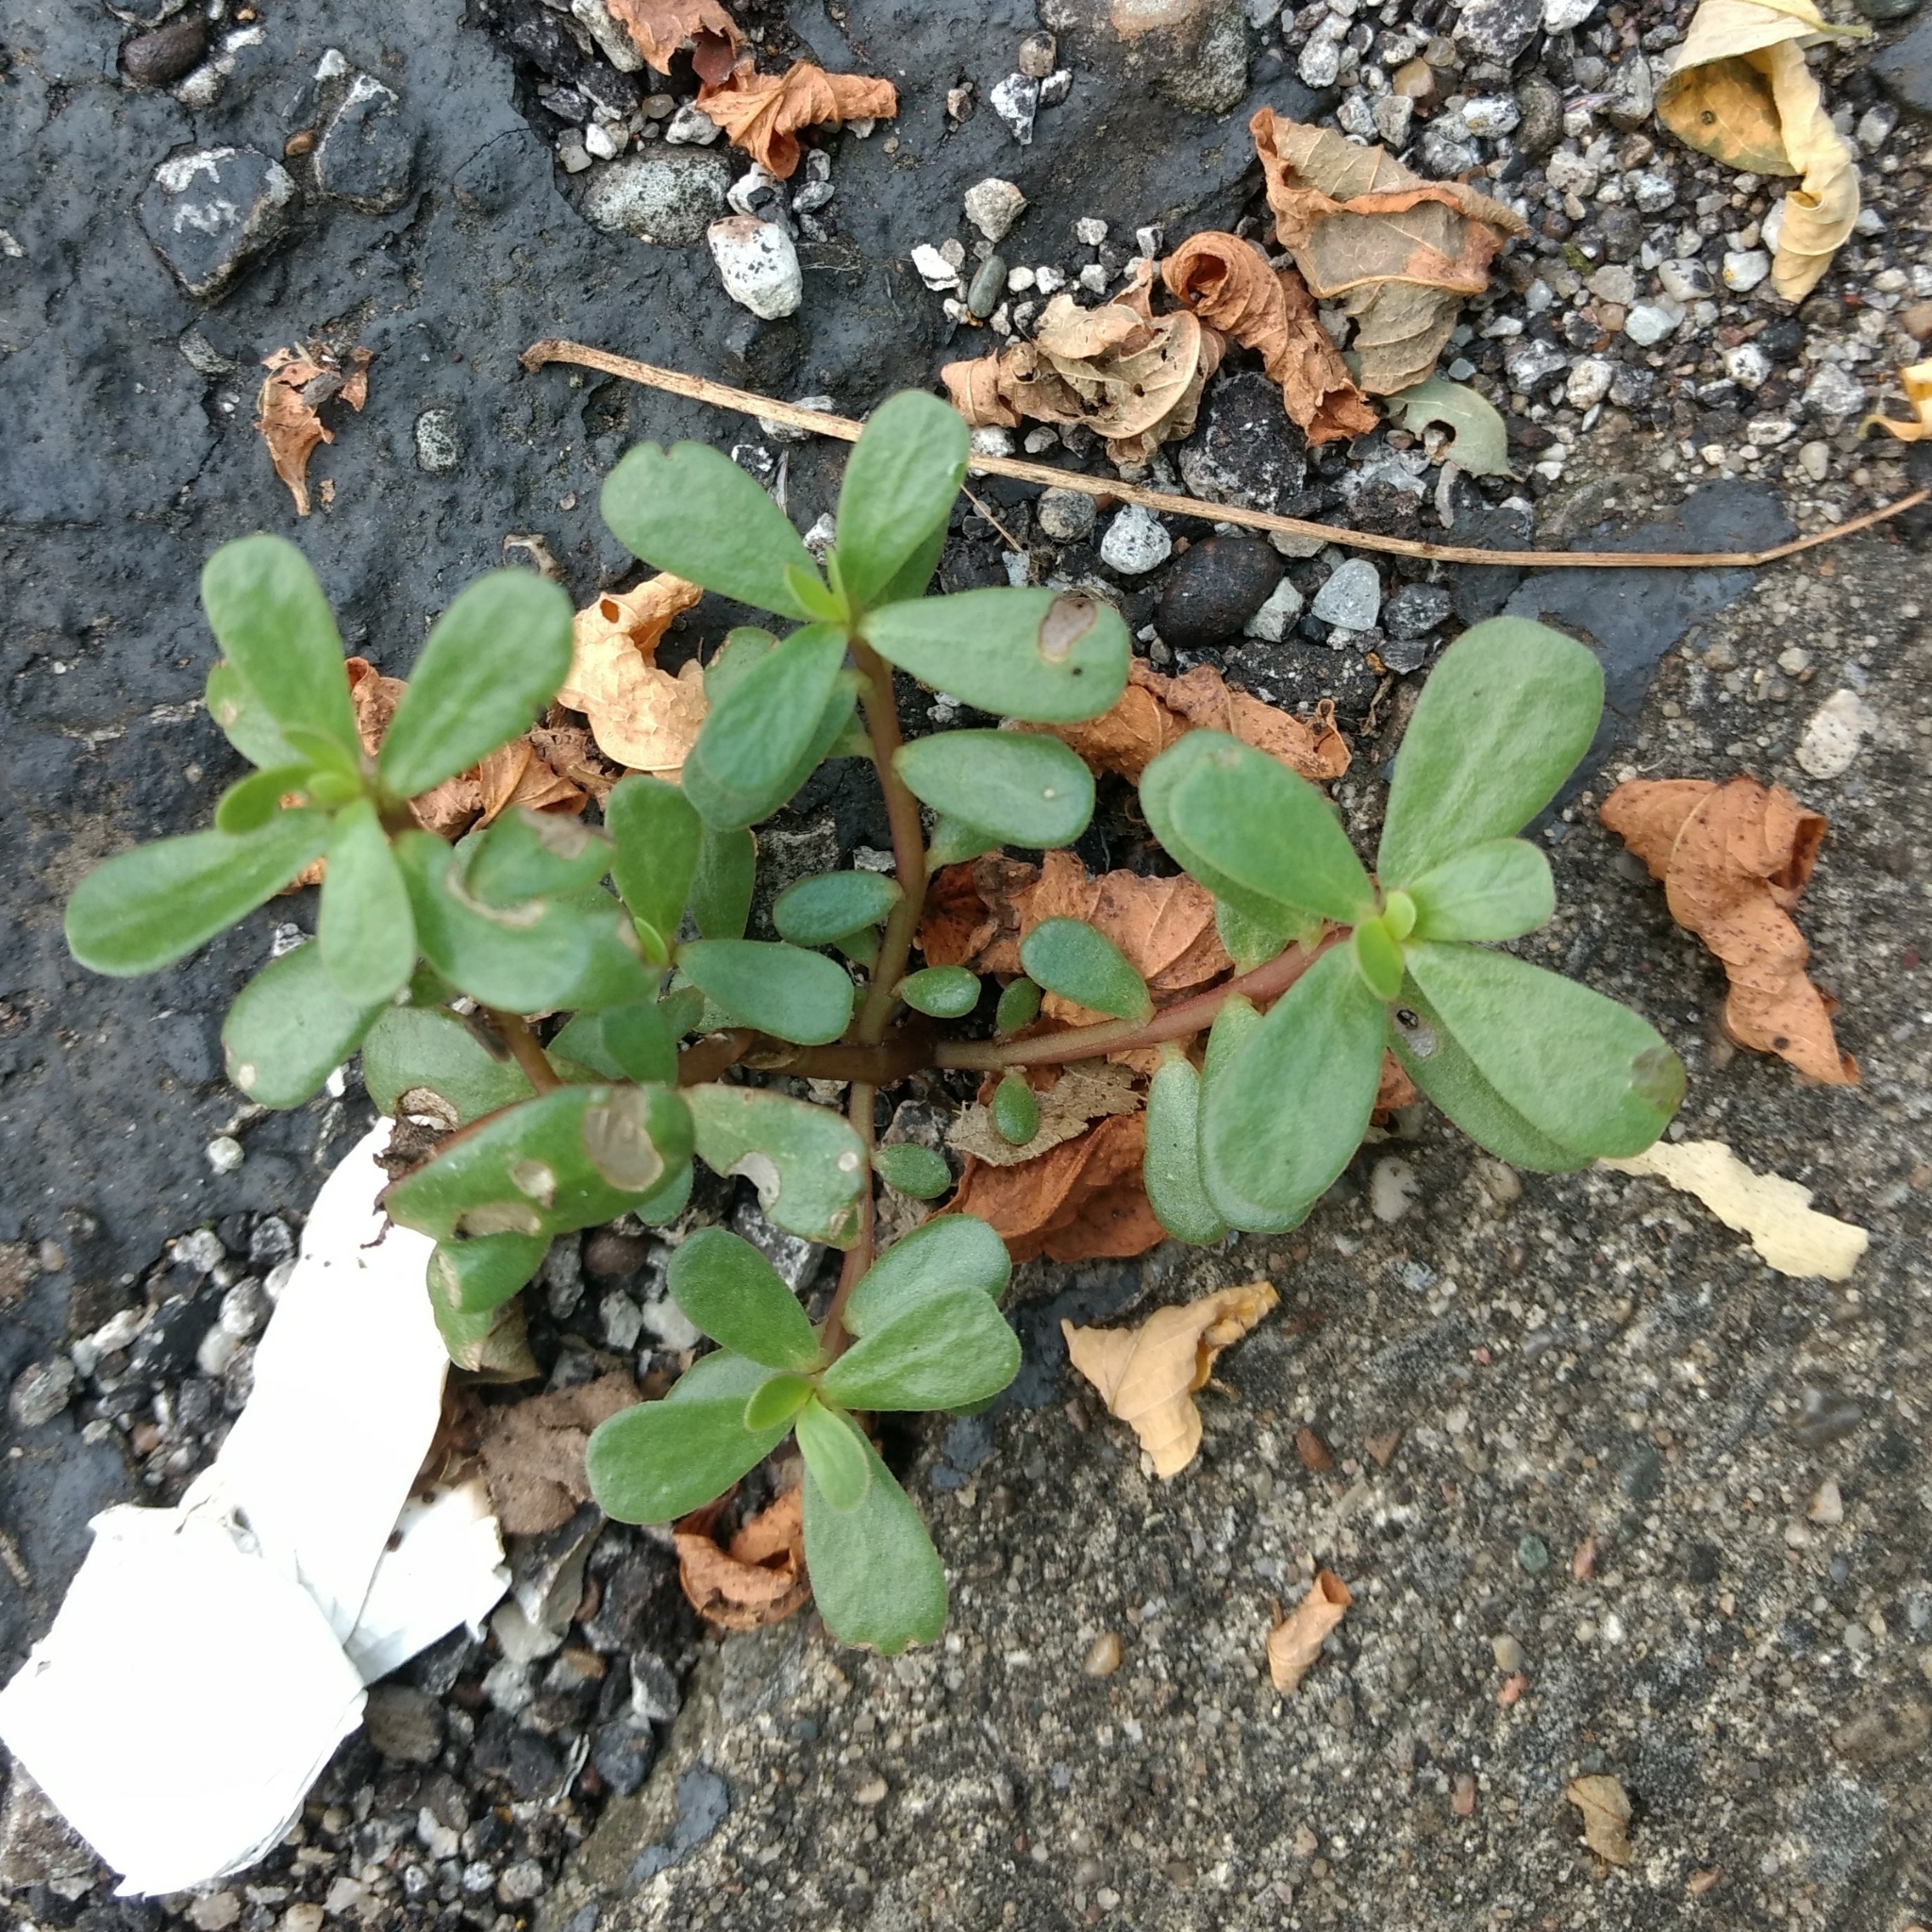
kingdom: Plantae
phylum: Tracheophyta
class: Magnoliopsida
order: Caryophyllales
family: Portulacaceae
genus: Portulaca
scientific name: Portulaca oleracea
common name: Common purslane
